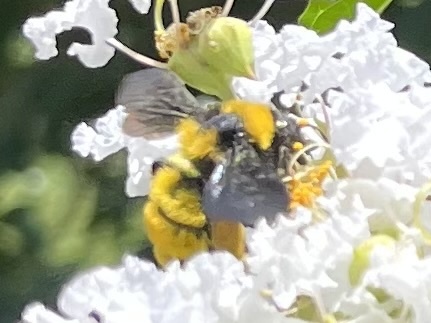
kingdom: Animalia
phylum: Arthropoda
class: Insecta
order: Hymenoptera
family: Apidae
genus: Bombus
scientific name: Bombus sonorus
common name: Sonoran bumble bee
